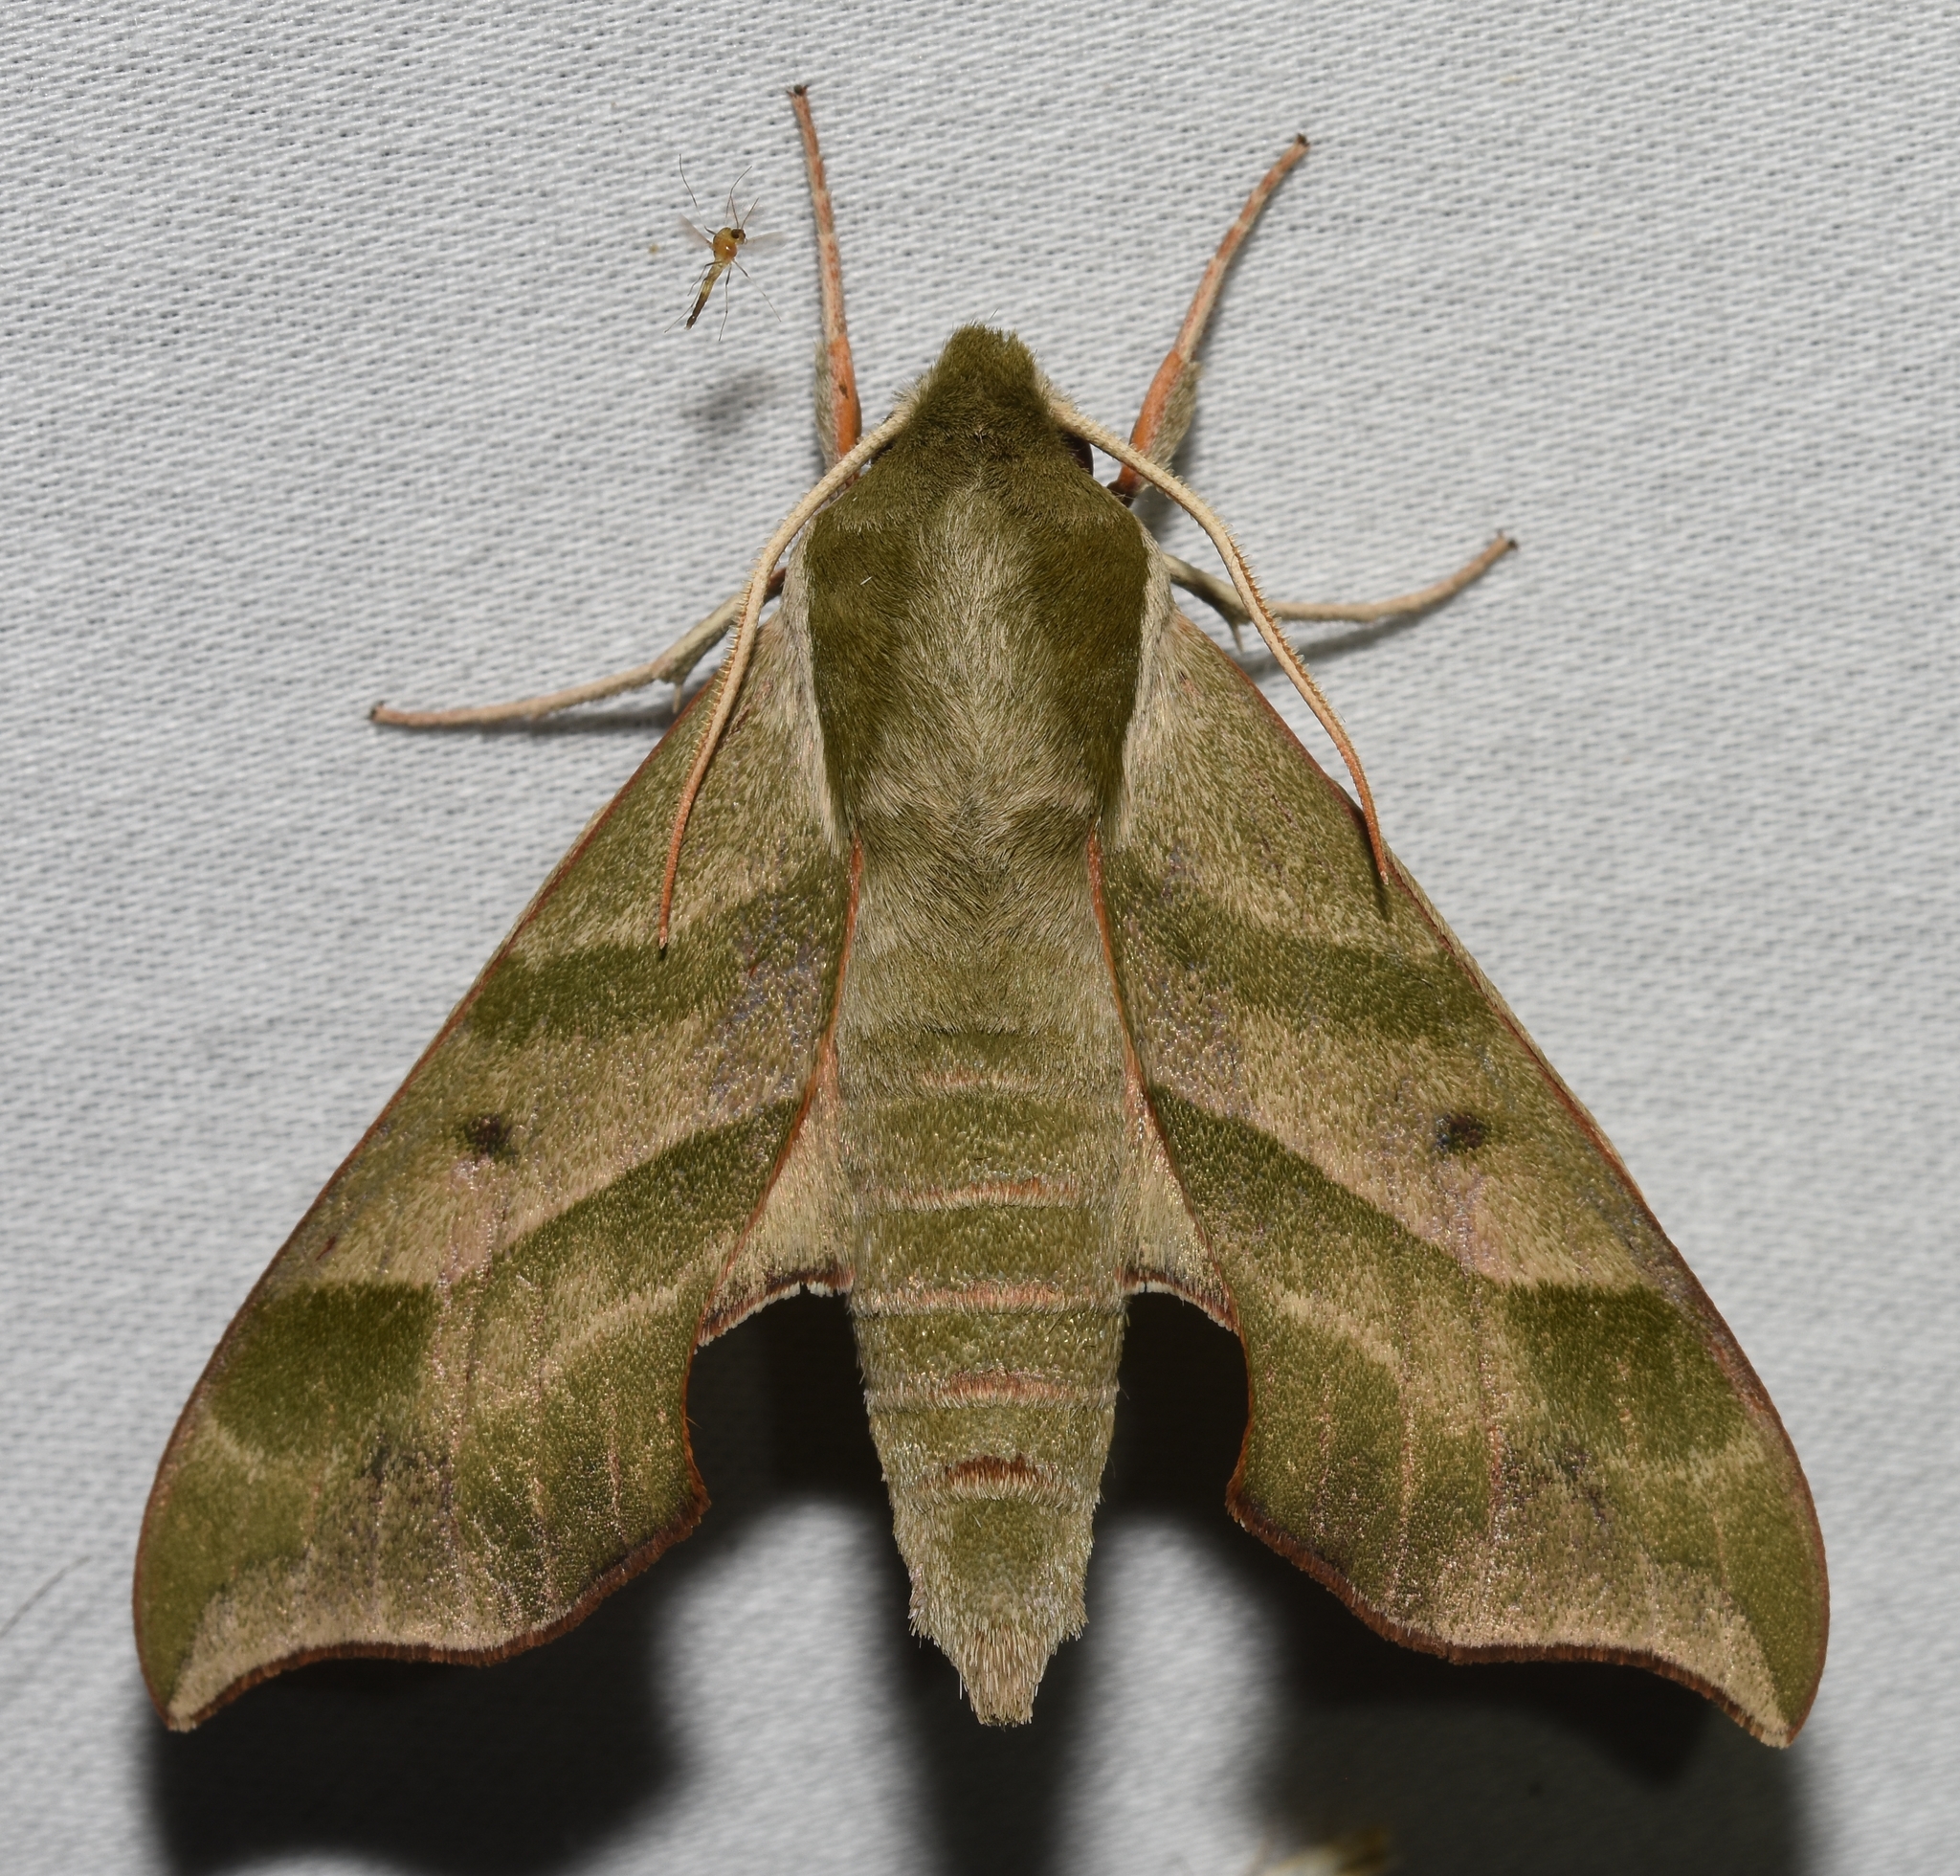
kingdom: Animalia
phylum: Arthropoda
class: Insecta
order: Lepidoptera
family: Sphingidae
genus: Darapsa
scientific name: Darapsa myron
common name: Hog sphinx
